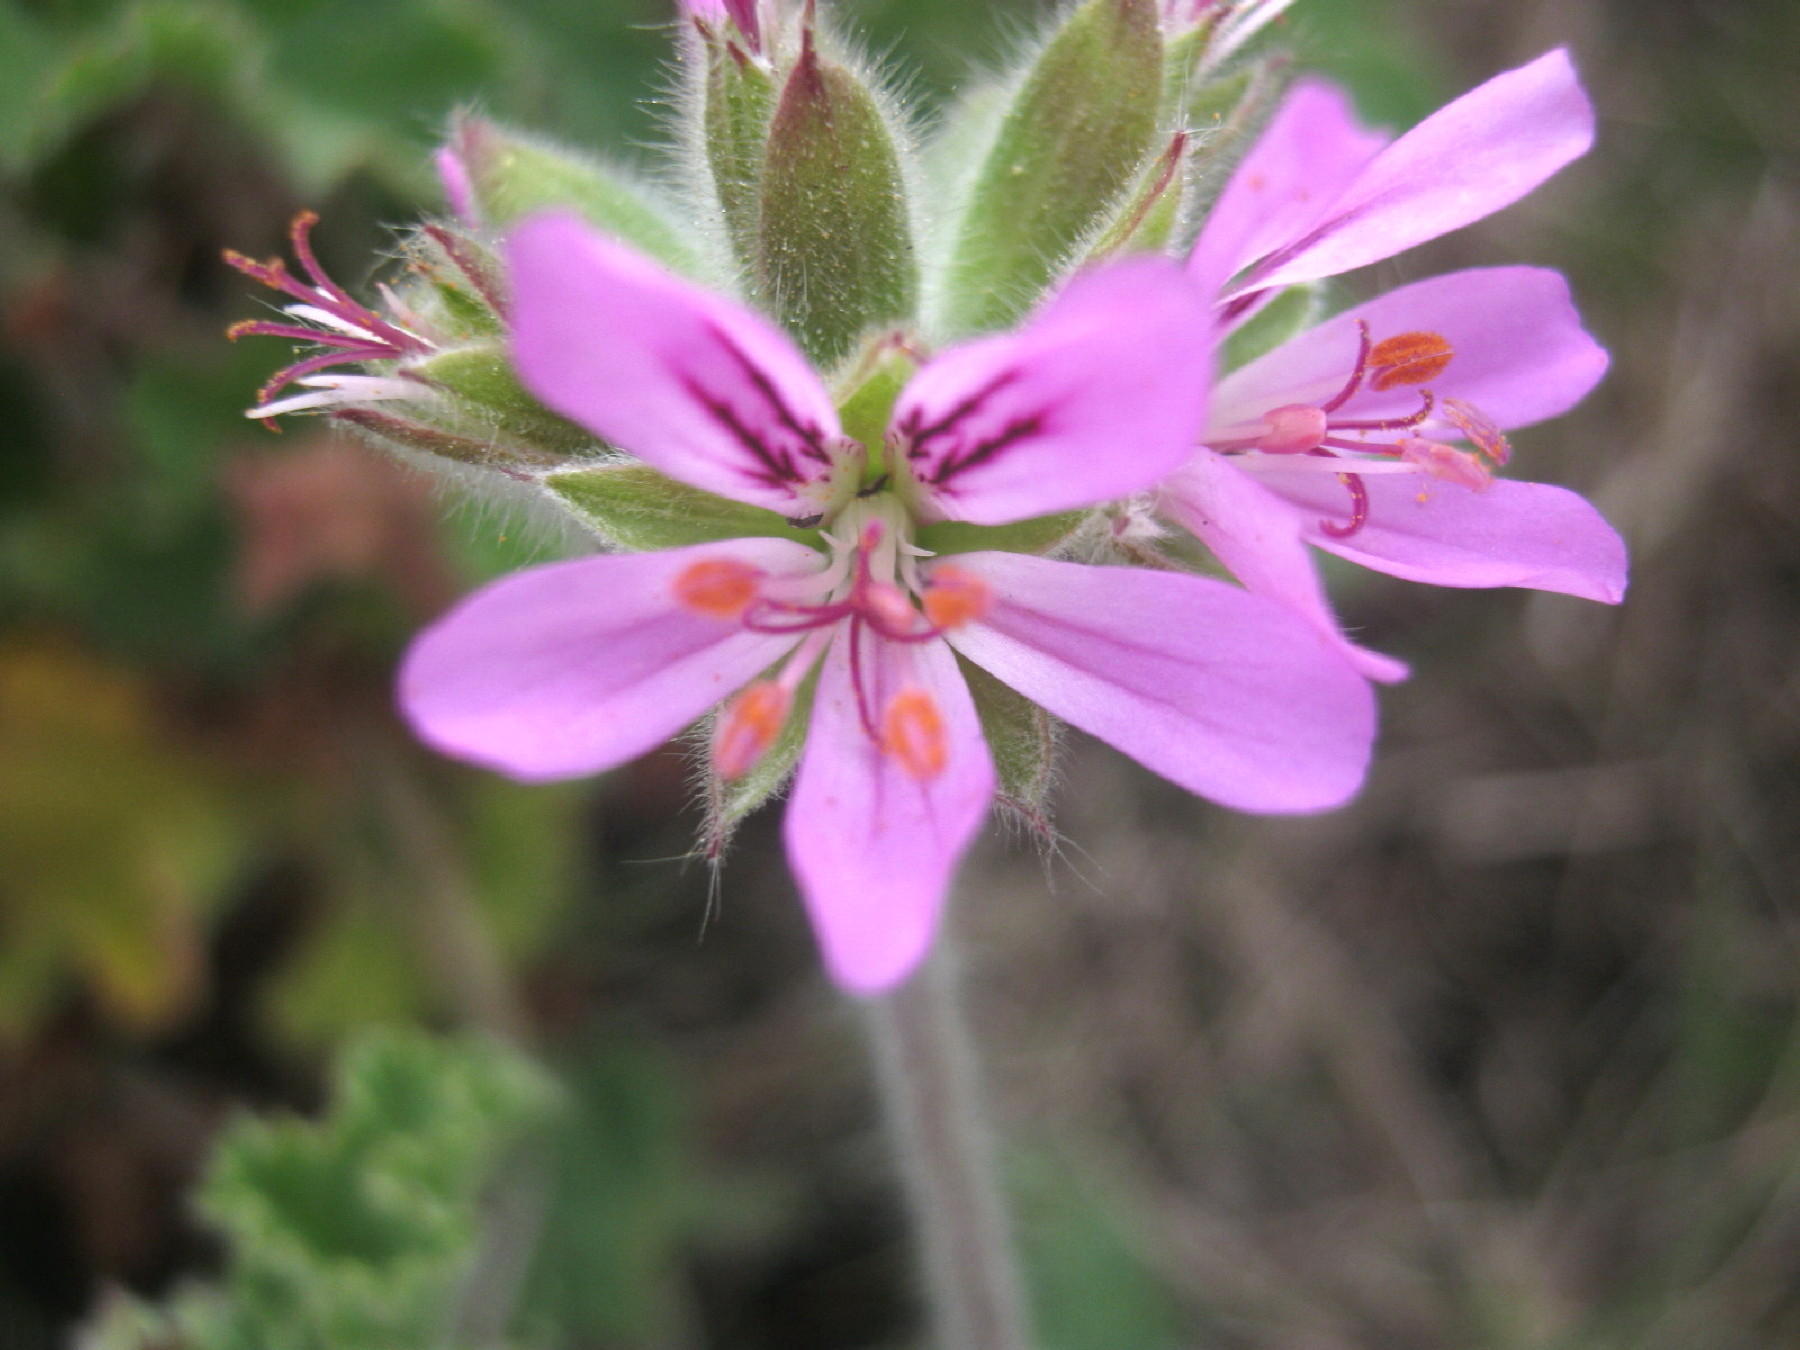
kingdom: Plantae
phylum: Tracheophyta
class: Magnoliopsida
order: Geraniales
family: Geraniaceae
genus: Pelargonium
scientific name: Pelargonium capitatum
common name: Rose scented geranium
